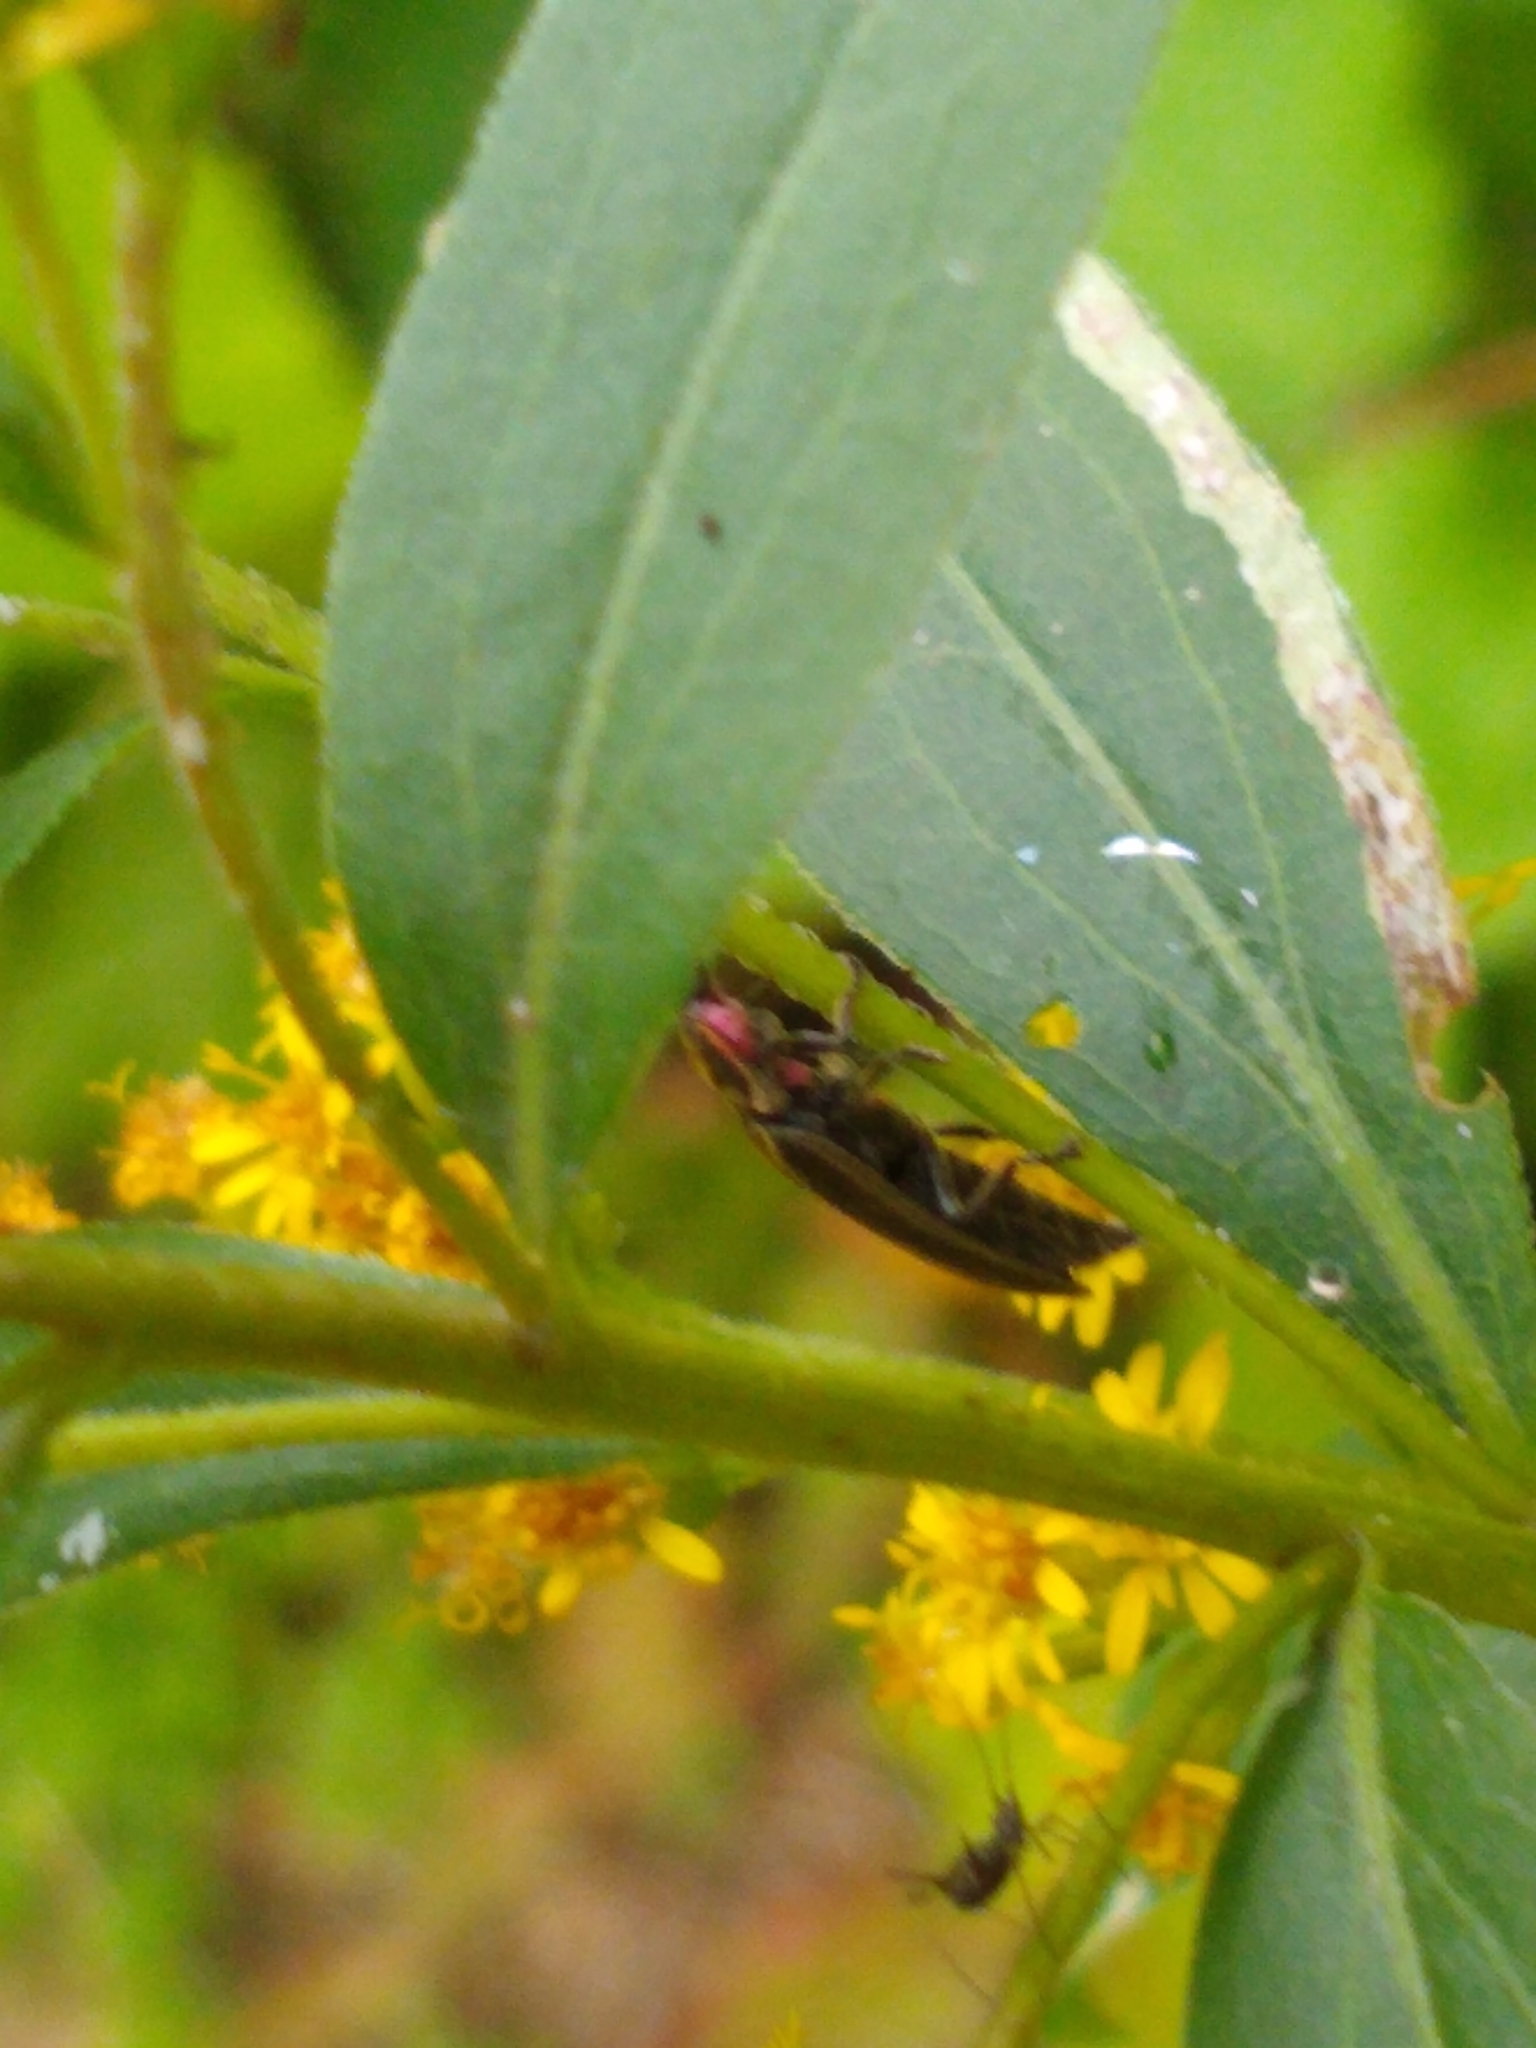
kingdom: Animalia
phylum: Arthropoda
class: Insecta
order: Coleoptera
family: Lampyridae
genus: Photinus
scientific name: Photinus corrusca
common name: Winter firefly
